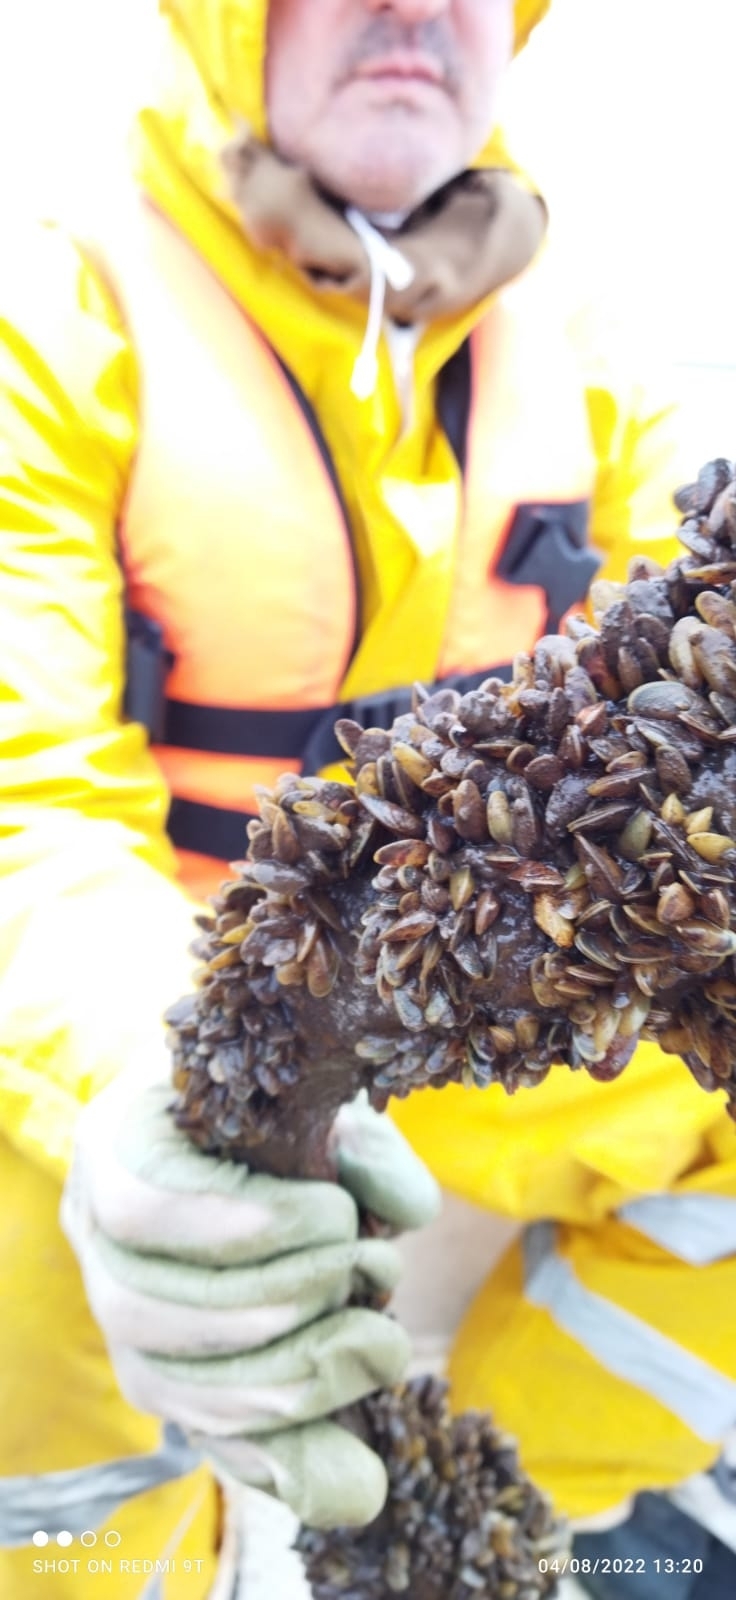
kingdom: Animalia
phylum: Mollusca
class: Bivalvia
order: Mytilida
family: Mytilidae
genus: Limnoperna
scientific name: Limnoperna fortunei
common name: Golden mussel
